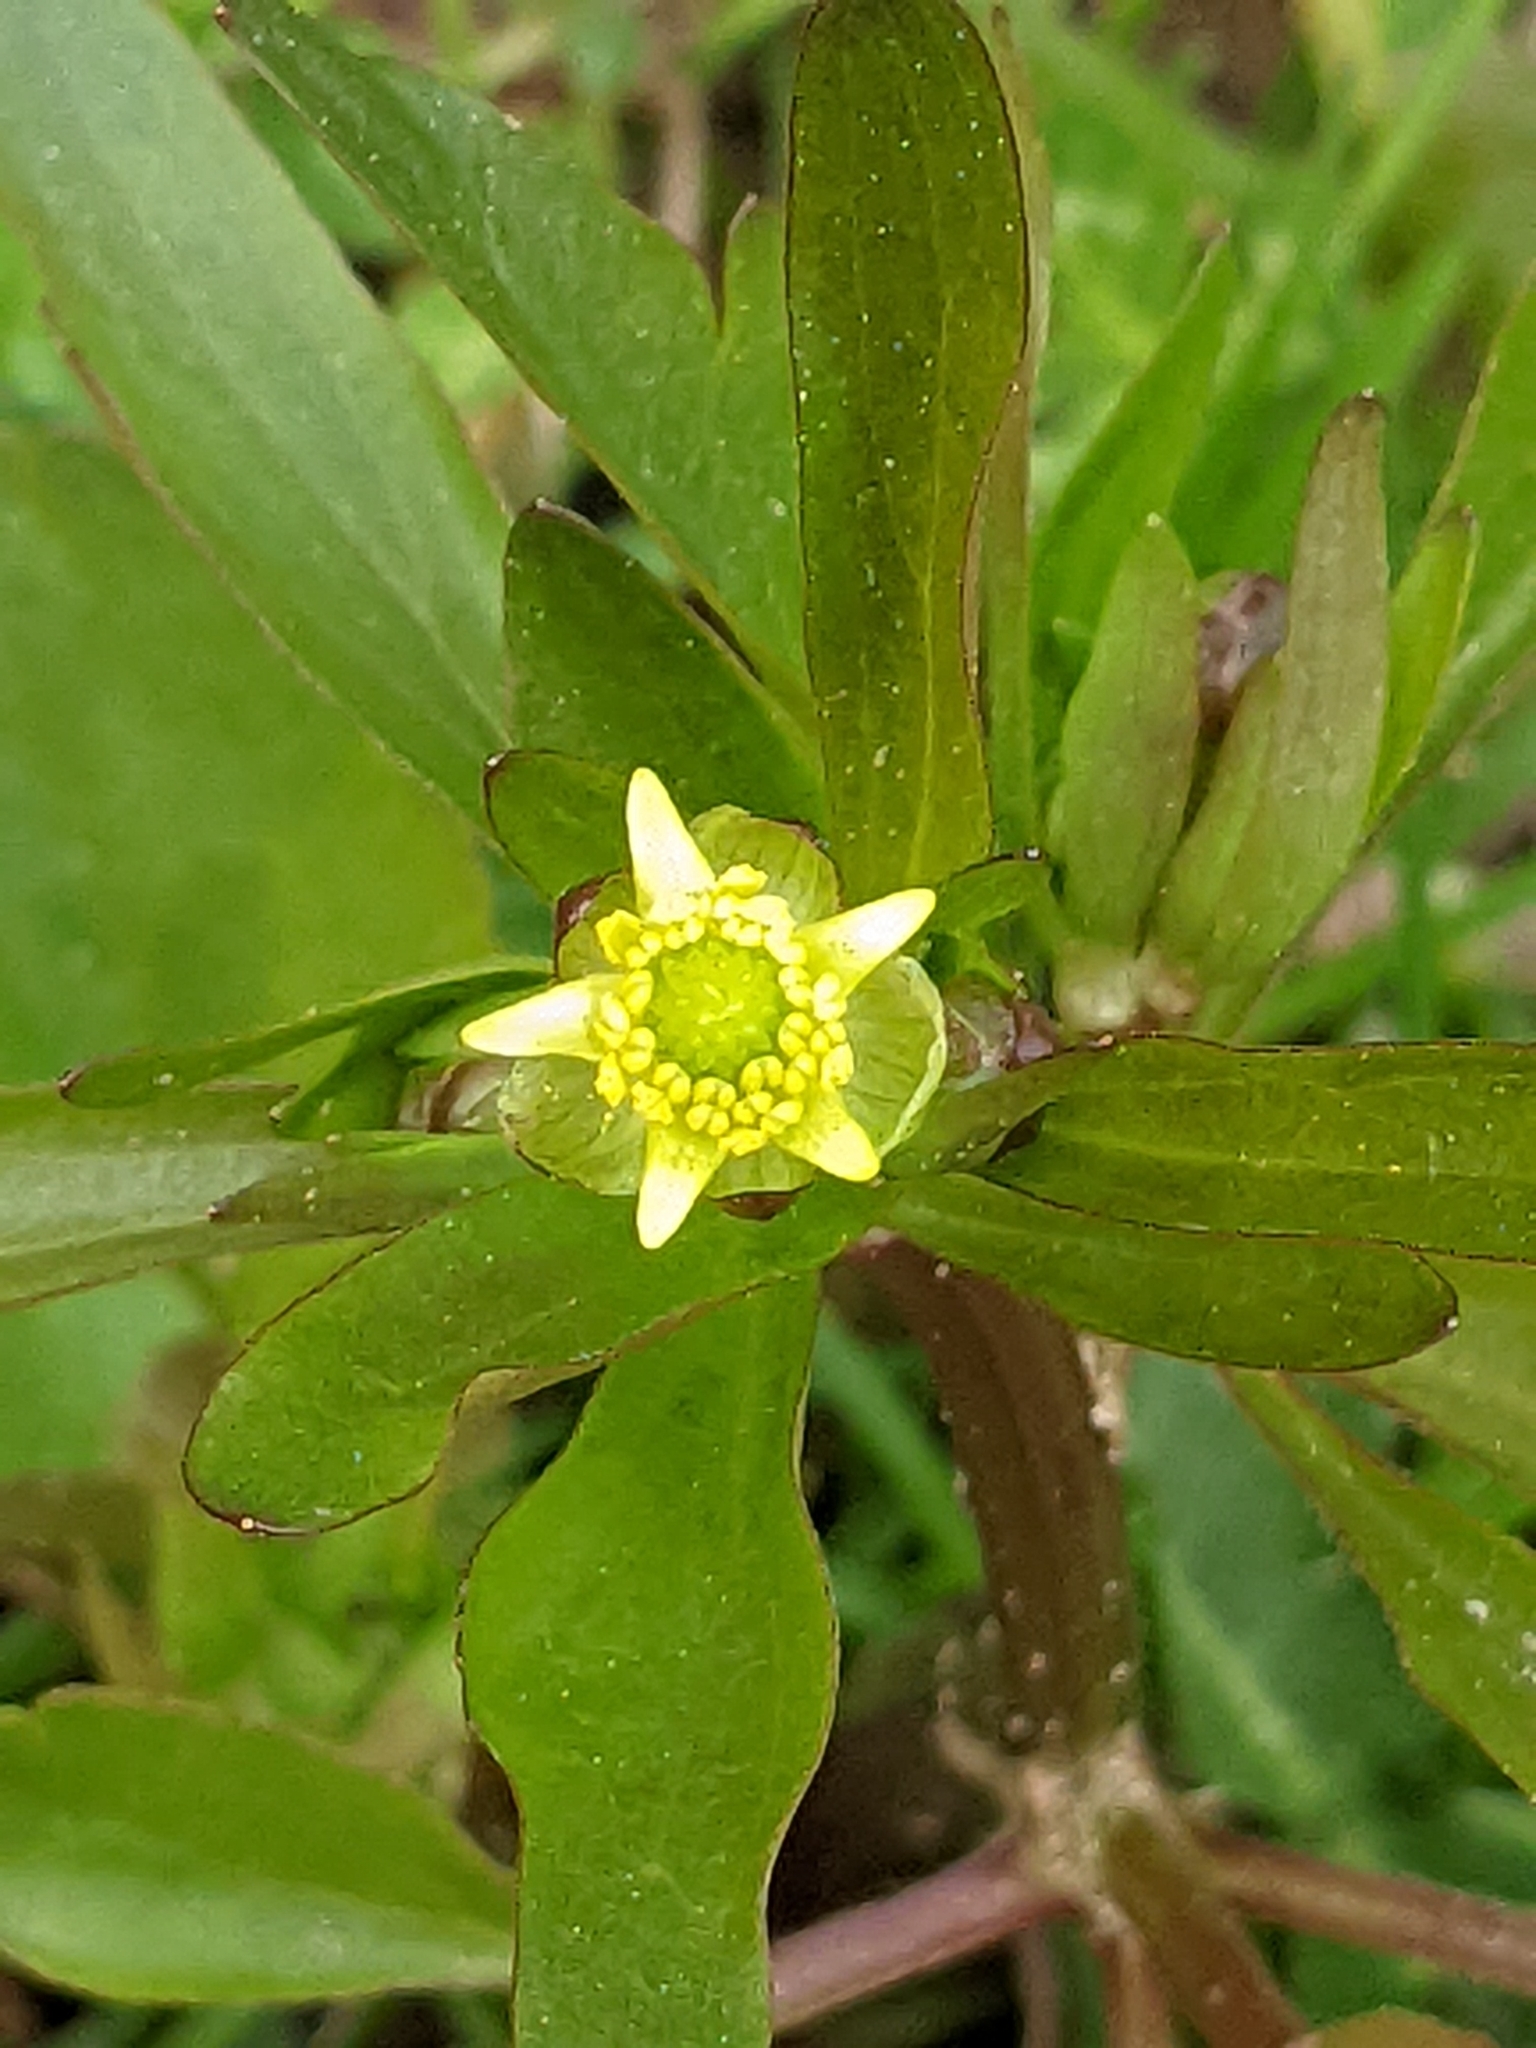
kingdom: Plantae
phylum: Tracheophyta
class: Magnoliopsida
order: Ranunculales
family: Ranunculaceae
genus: Ranunculus
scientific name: Ranunculus abortivus
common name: Early wood buttercup
